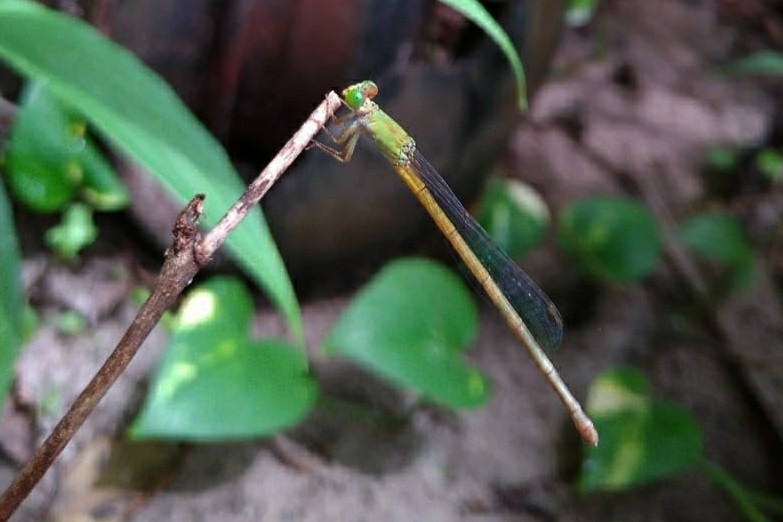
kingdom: Animalia
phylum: Arthropoda
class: Insecta
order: Odonata
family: Coenagrionidae
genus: Ceriagrion
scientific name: Ceriagrion coromandelianum
